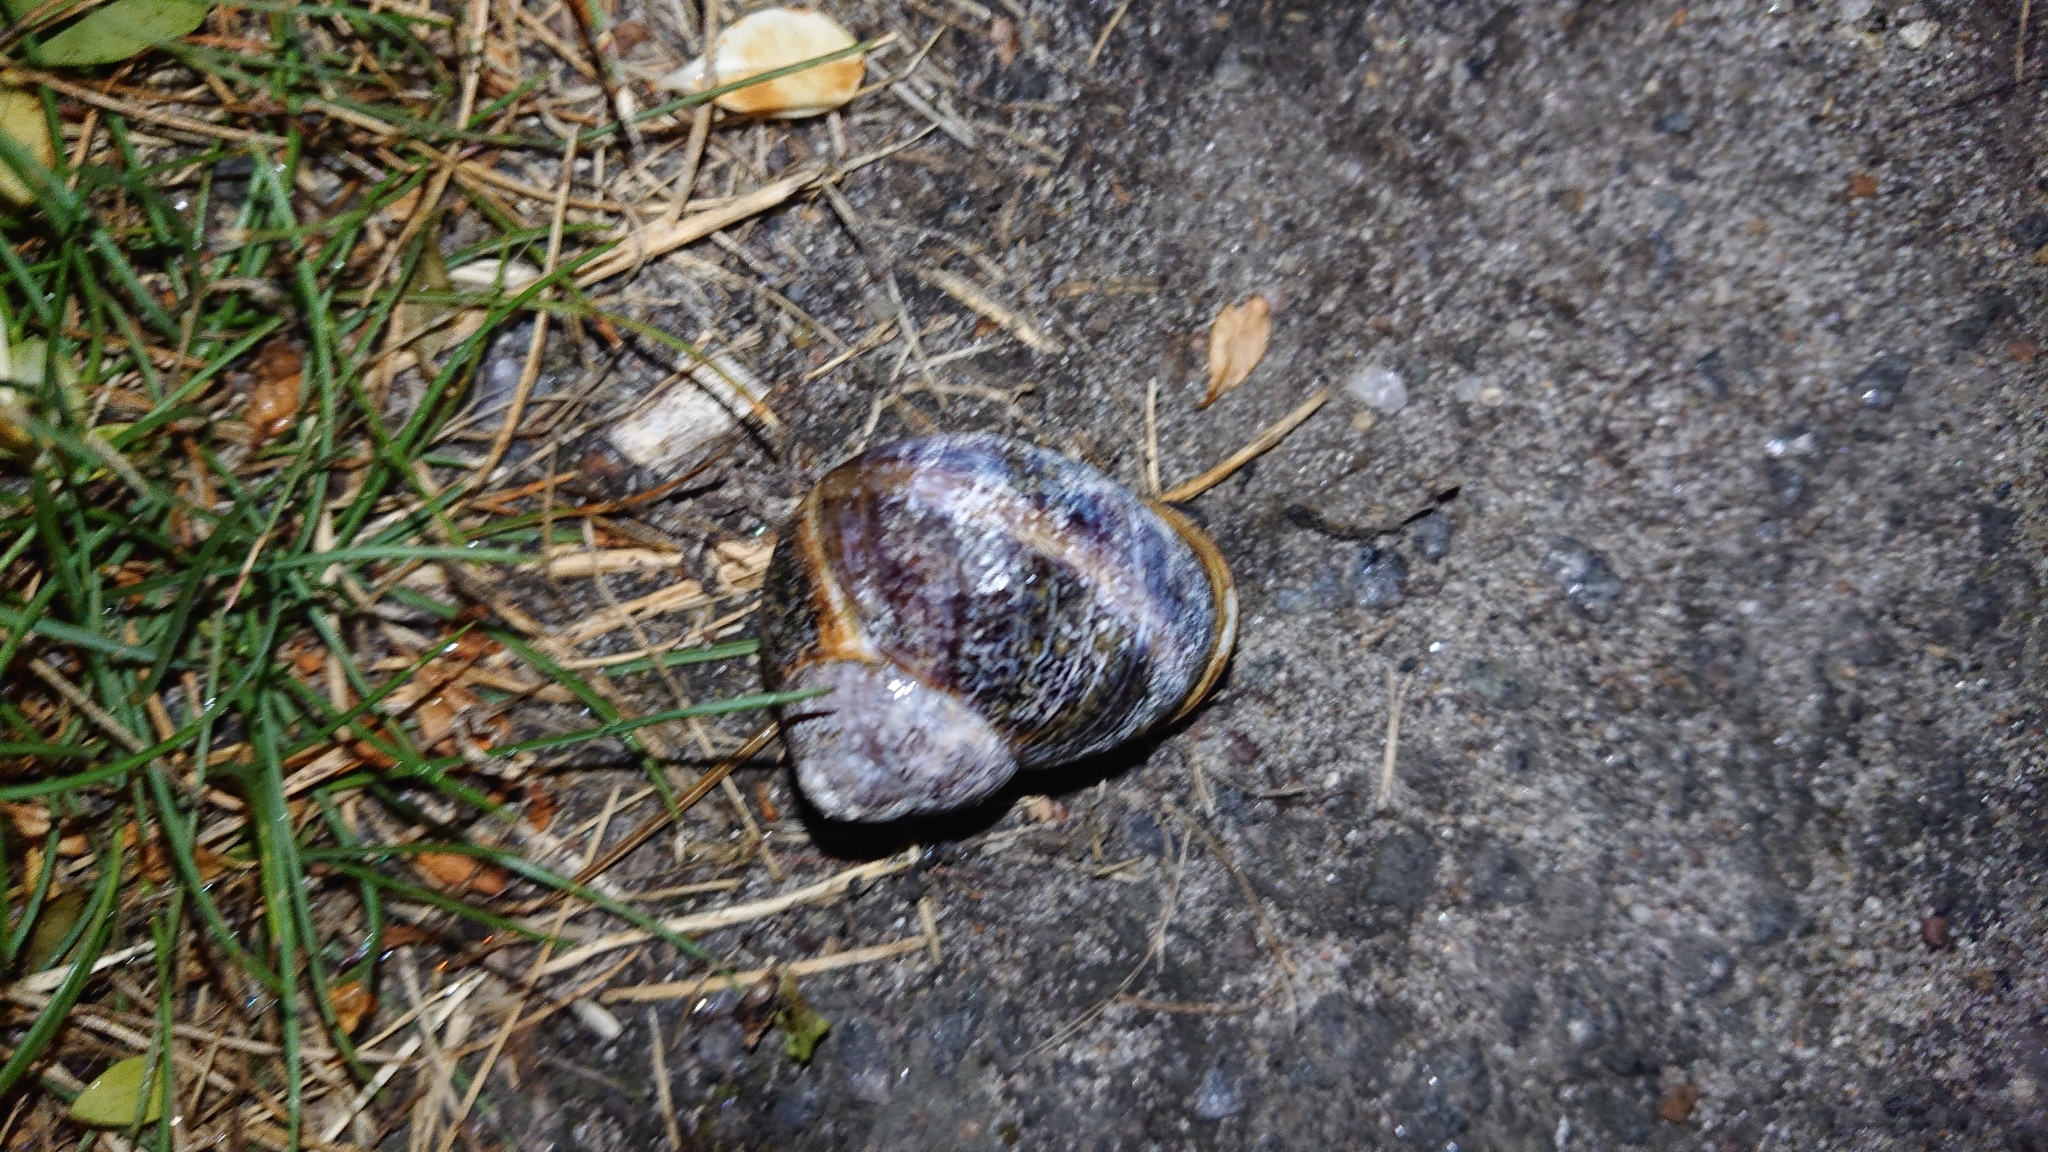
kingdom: Animalia
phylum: Mollusca
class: Gastropoda
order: Stylommatophora
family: Helicidae
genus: Cornu
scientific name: Cornu aspersum
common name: Brown garden snail
